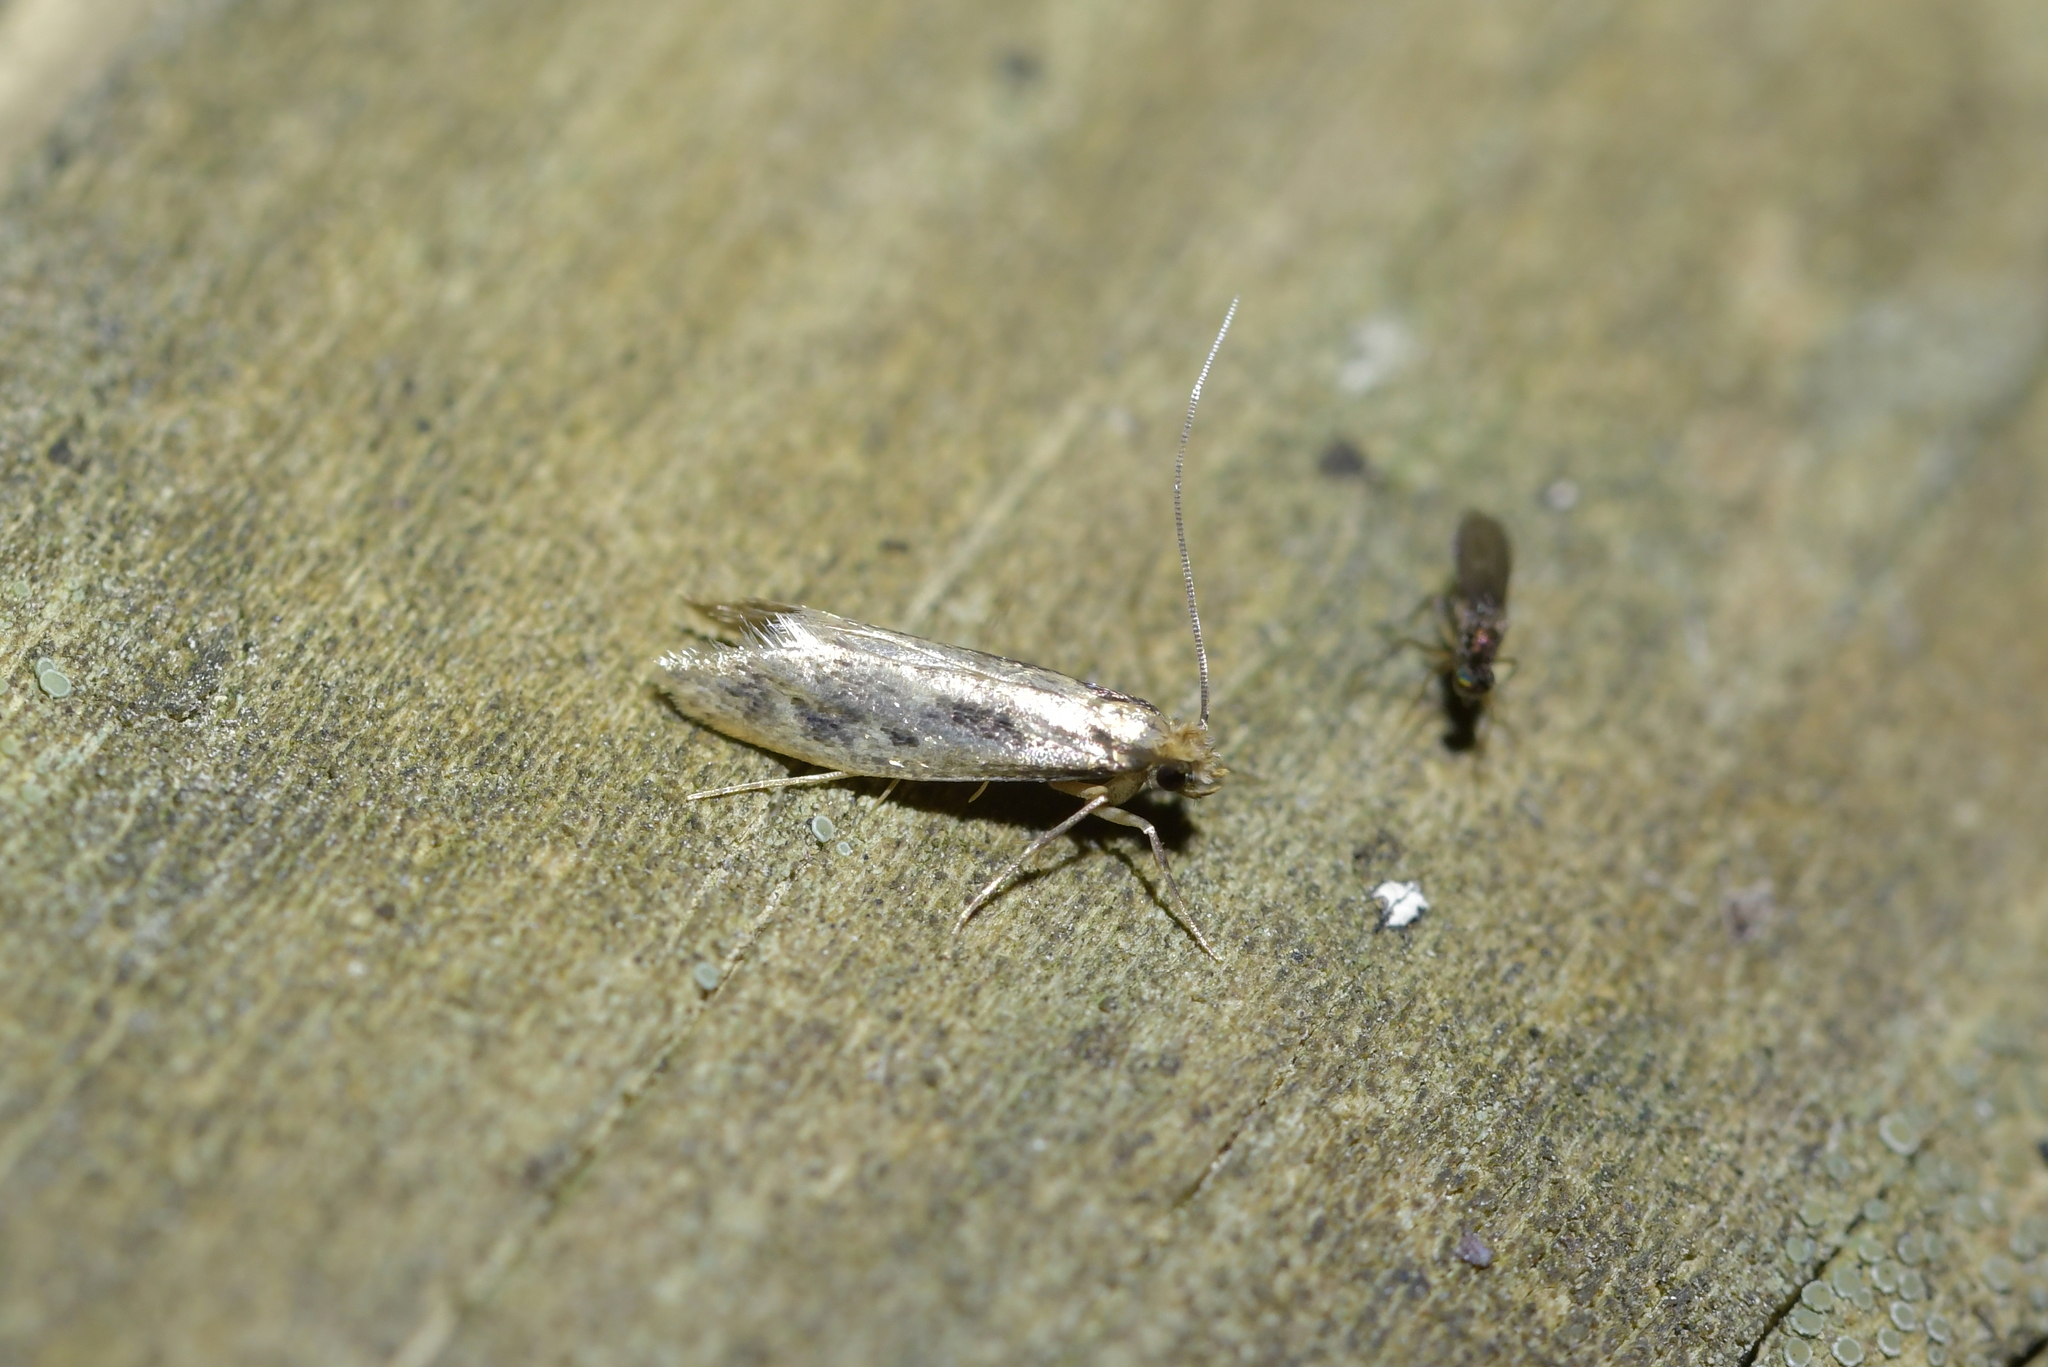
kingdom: Animalia
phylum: Arthropoda
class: Insecta
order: Lepidoptera
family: Tineidae
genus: Tinea
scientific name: Tinea pallescentella
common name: Large pale clothes moth
